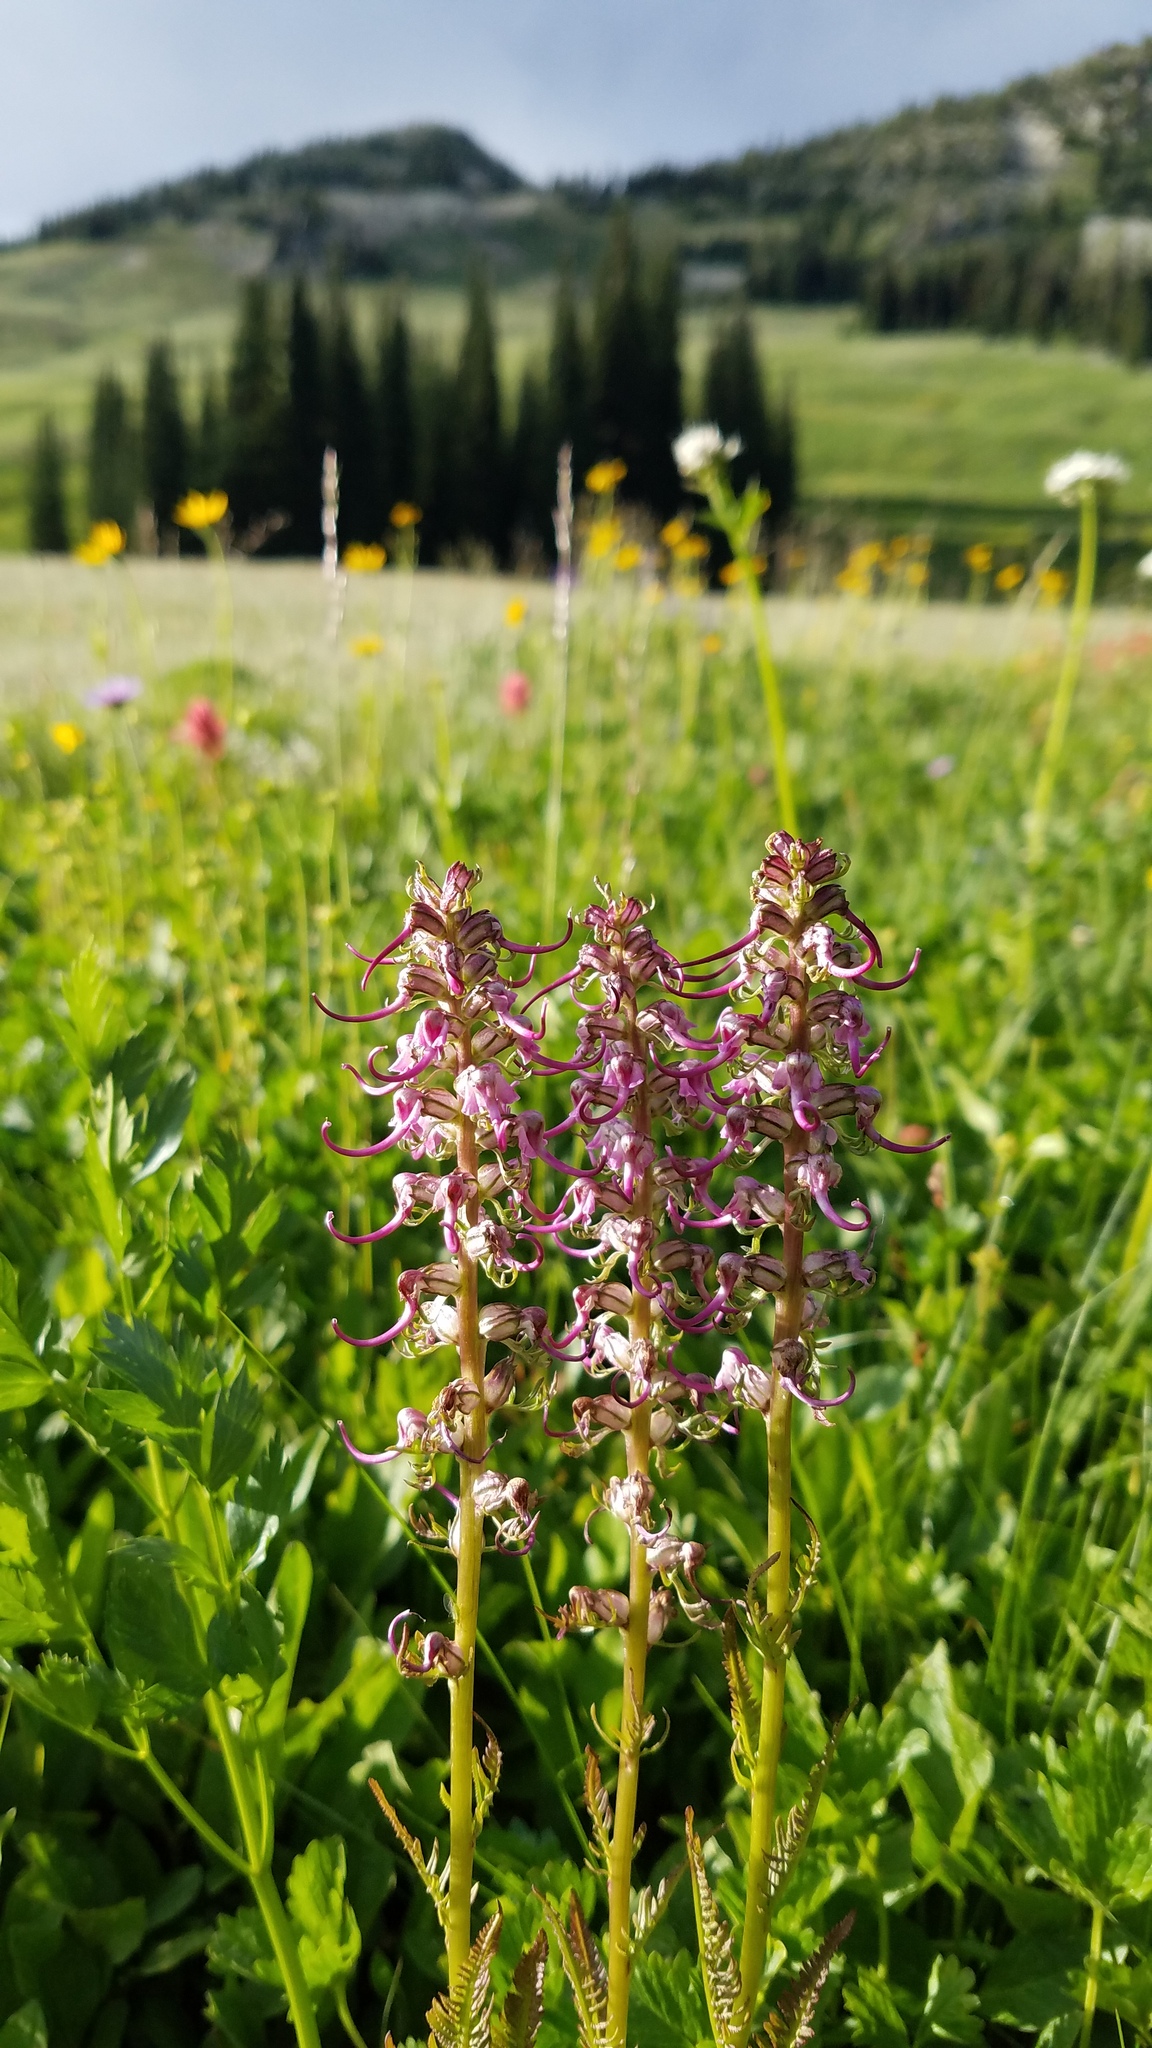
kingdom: Plantae
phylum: Tracheophyta
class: Magnoliopsida
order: Lamiales
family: Orobanchaceae
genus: Pedicularis
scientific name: Pedicularis groenlandica
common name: Elephant's-head
